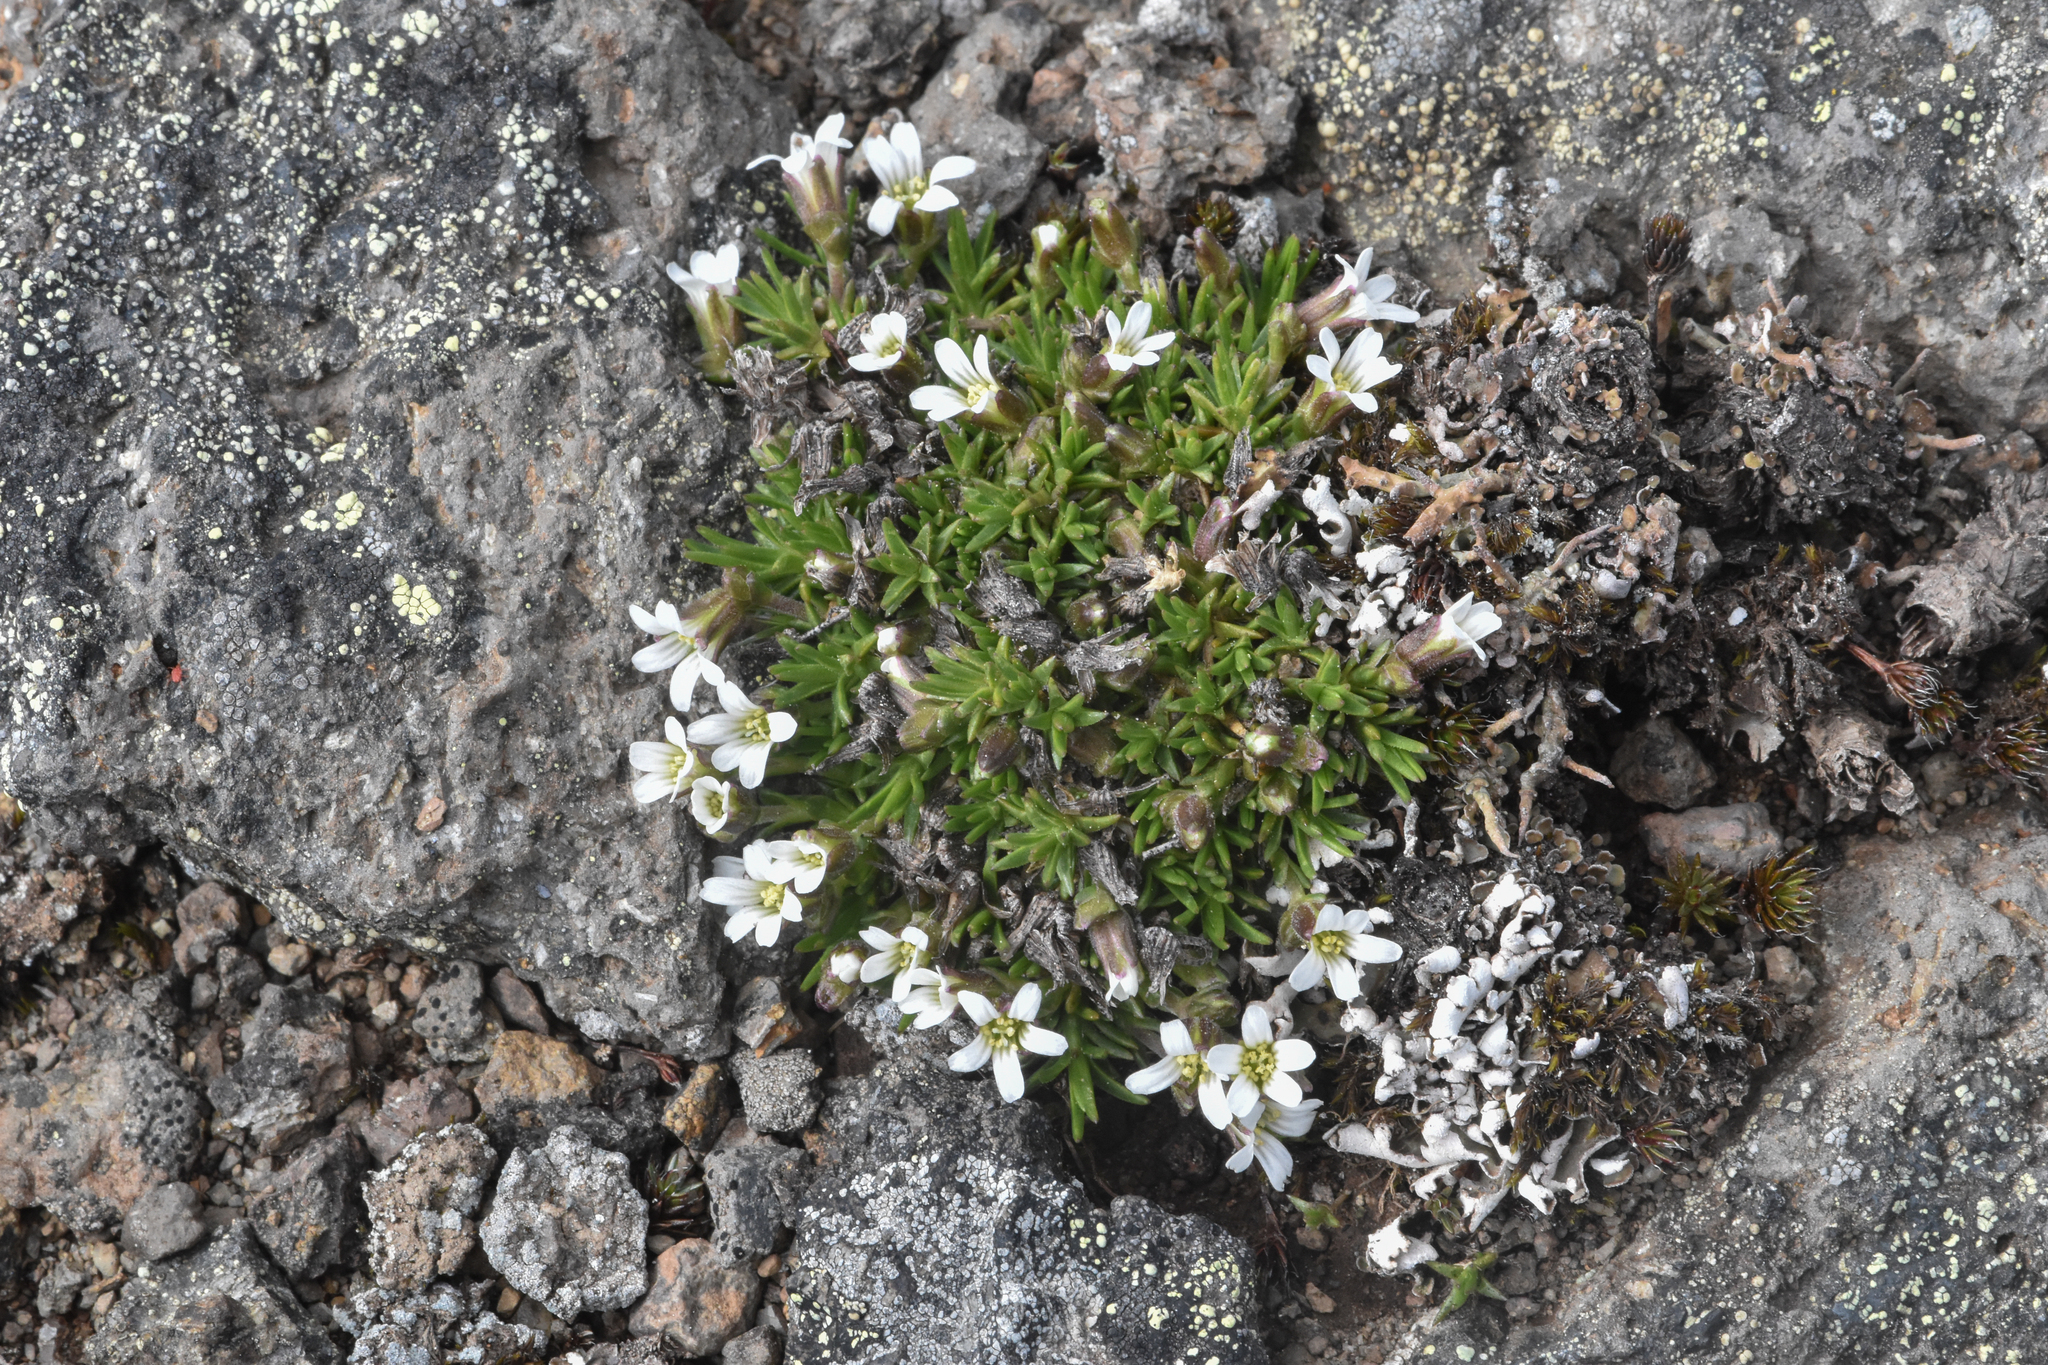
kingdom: Plantae
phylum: Tracheophyta
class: Magnoliopsida
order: Caryophyllales
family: Caryophyllaceae
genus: Cherleria
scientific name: Cherleria biflora
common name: Mountain sandwort
